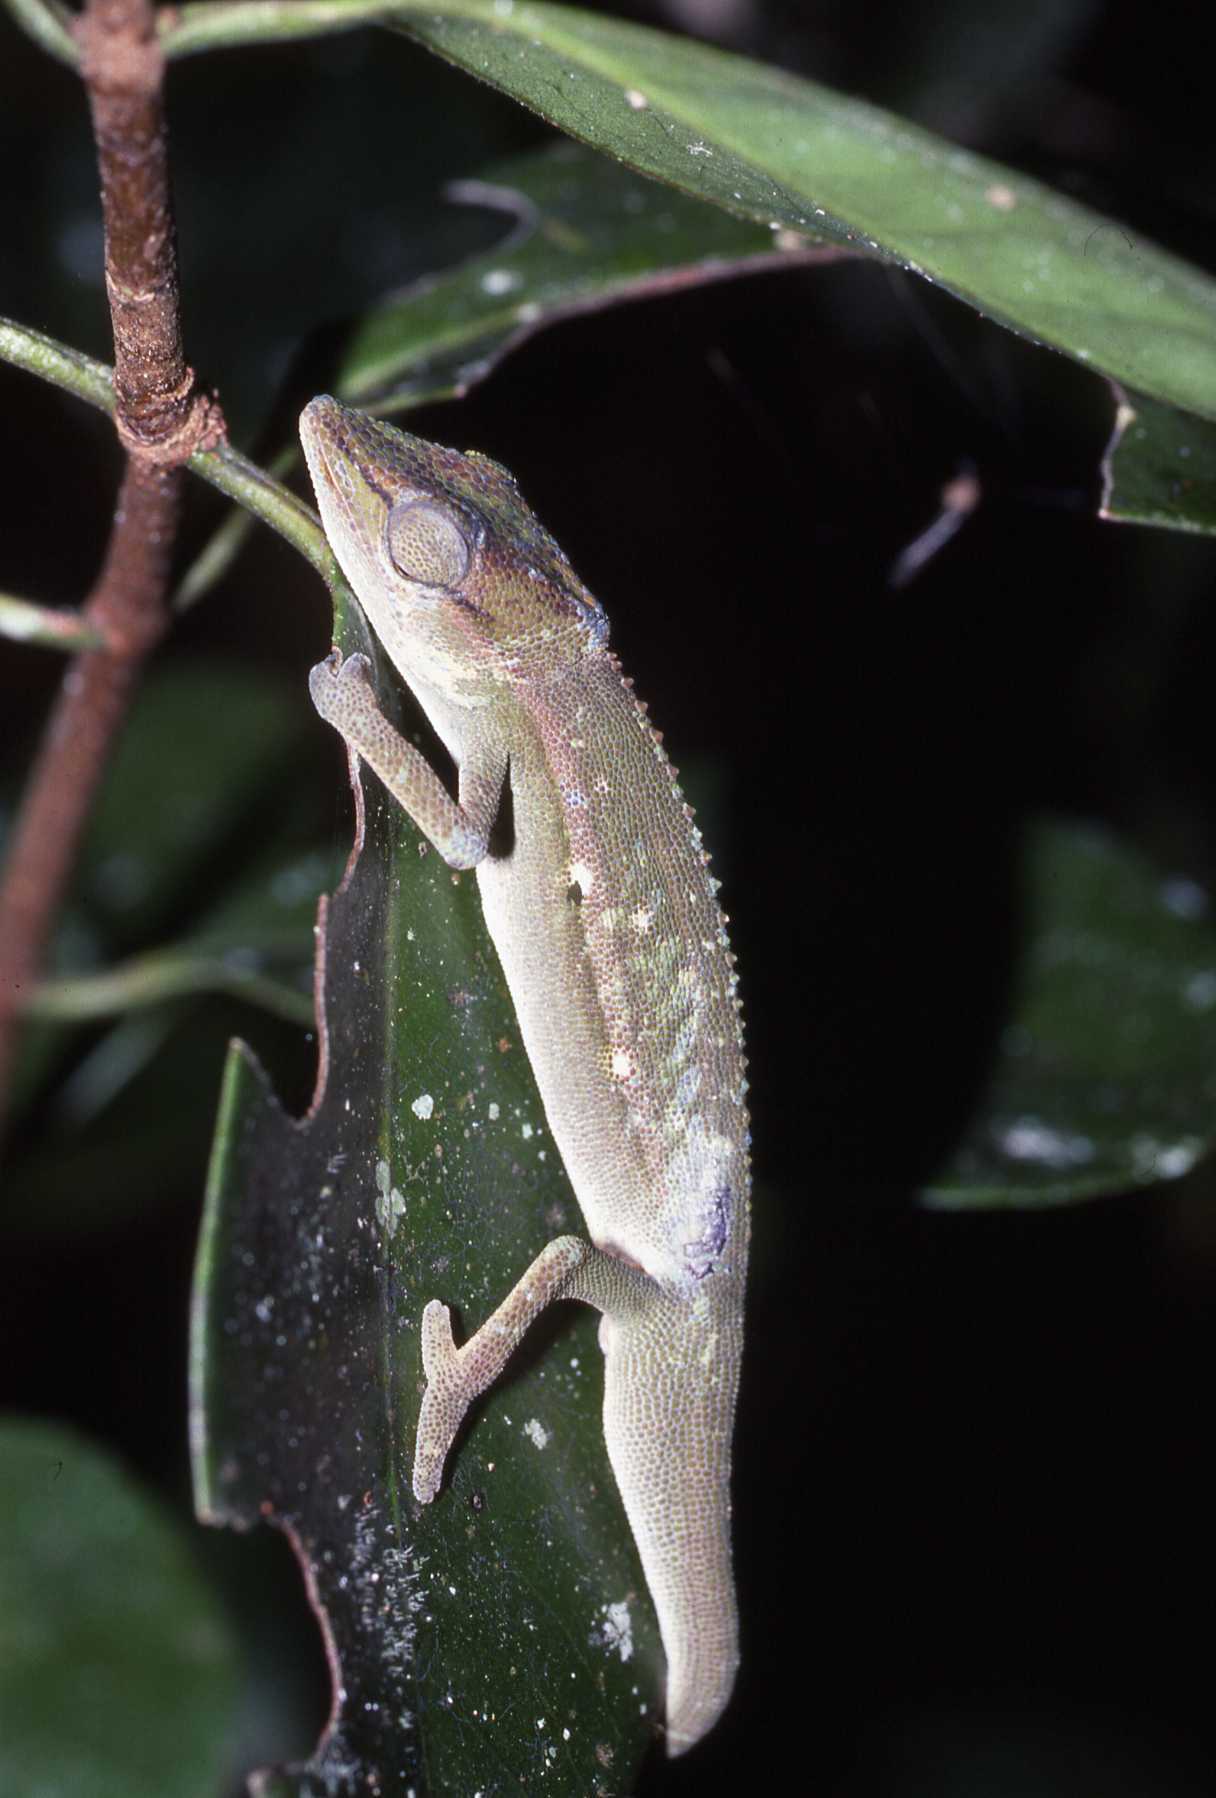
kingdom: Animalia
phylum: Chordata
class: Squamata
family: Chamaeleonidae
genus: Calumma
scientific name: Calumma gastrotaenia
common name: Short-nosed chameleon
